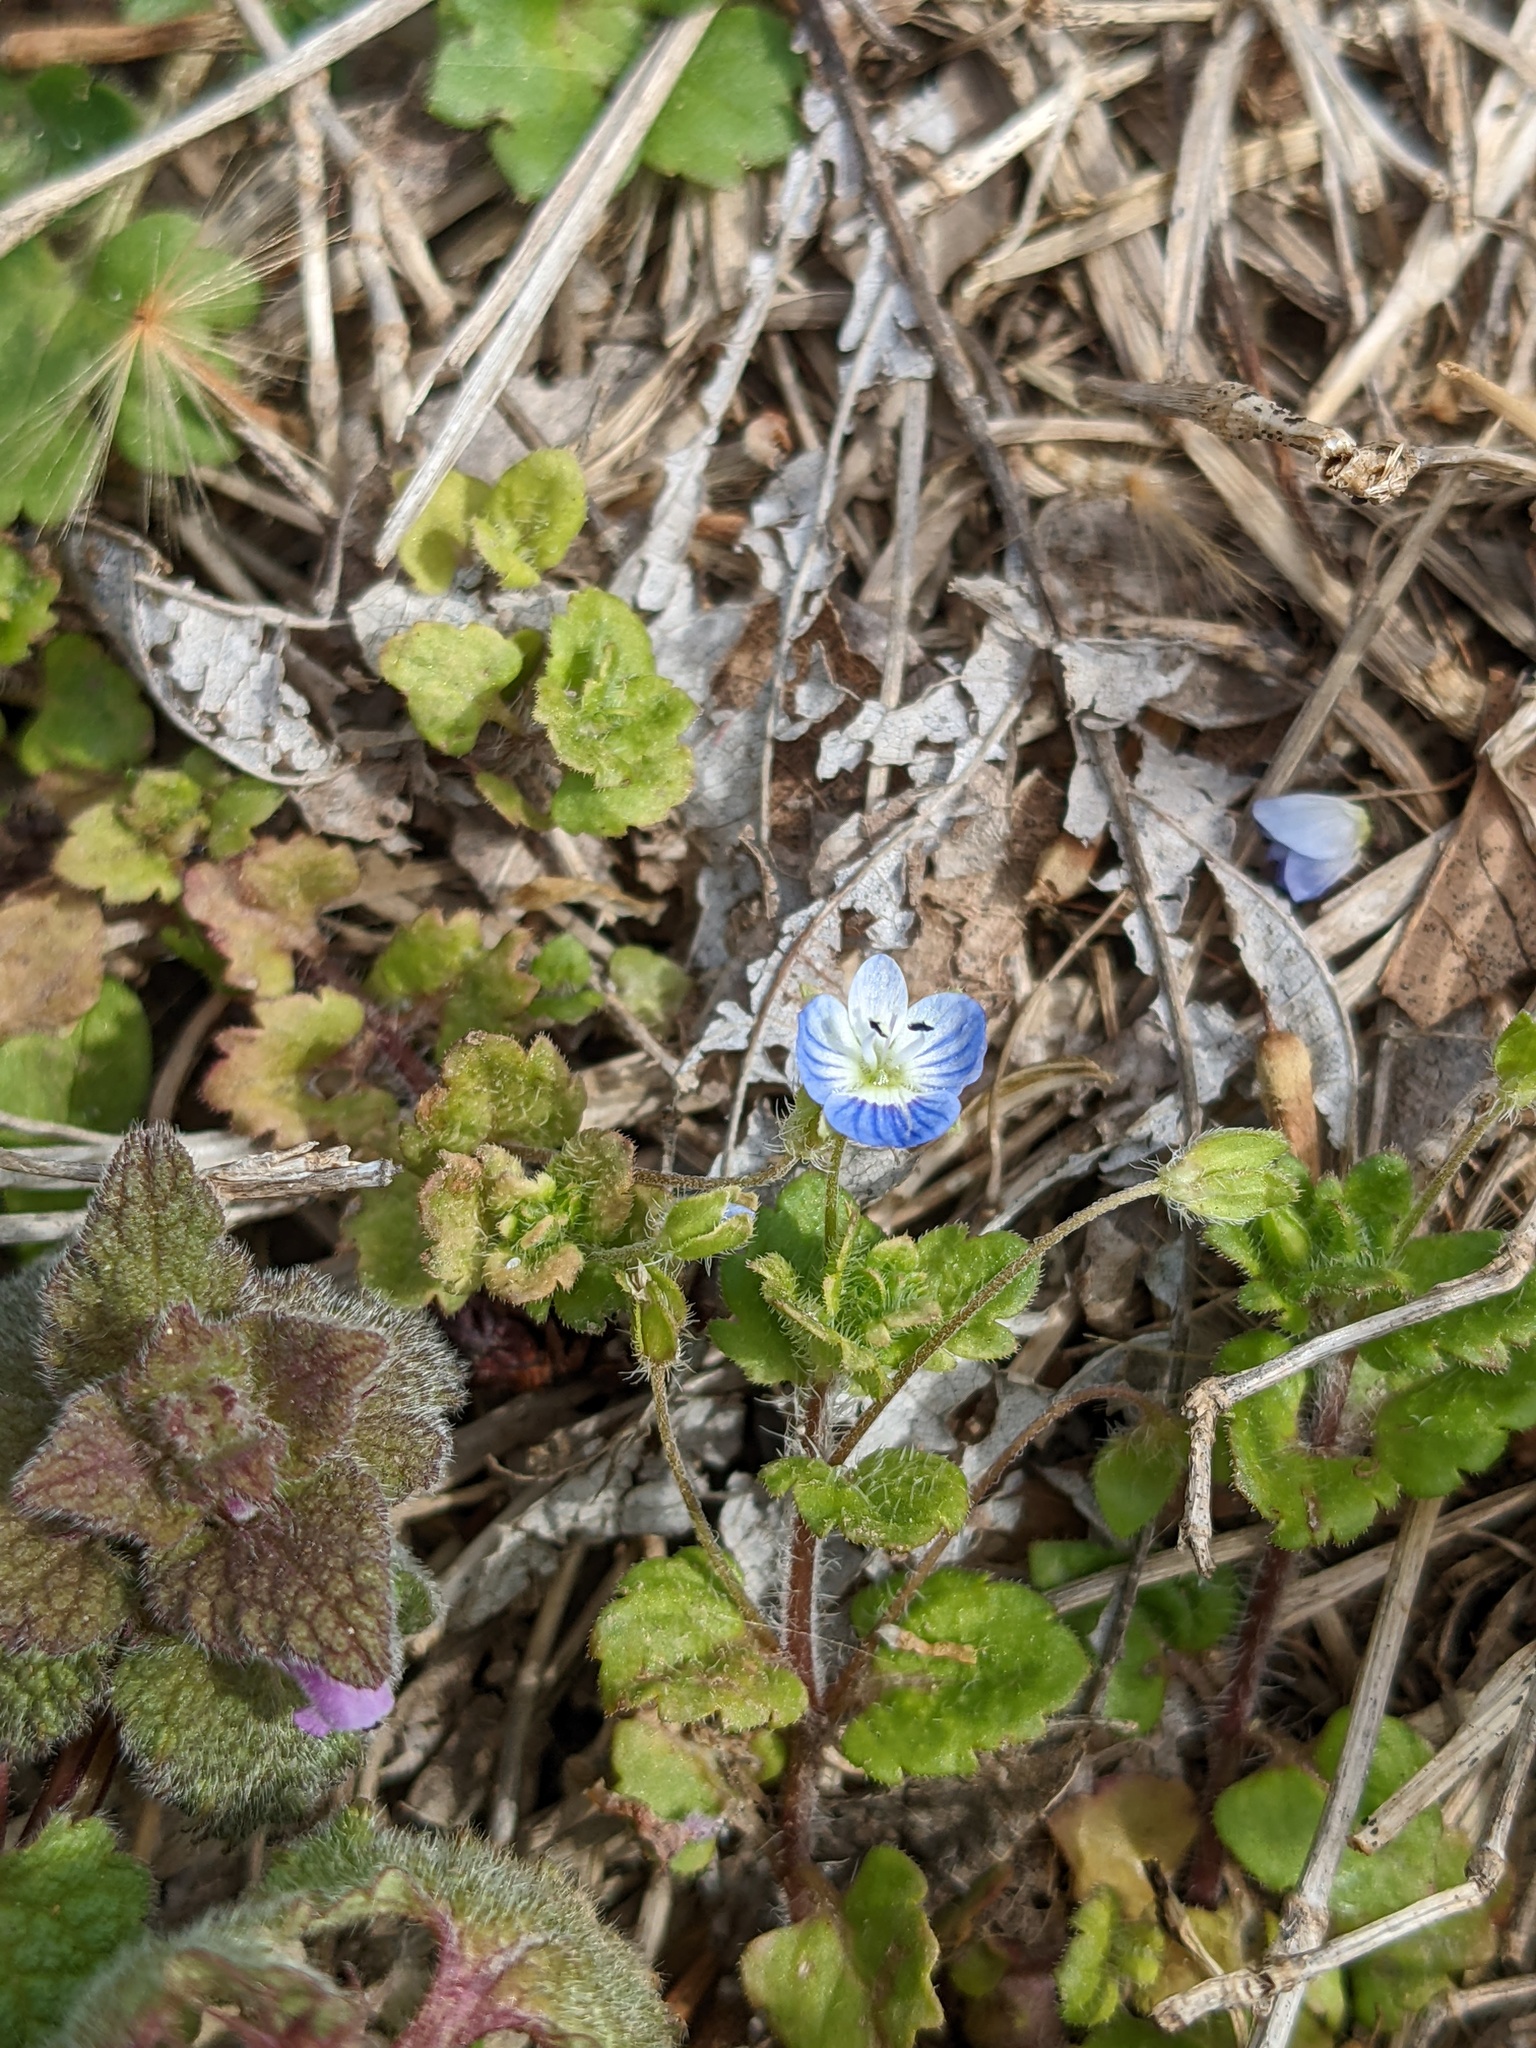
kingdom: Plantae
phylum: Tracheophyta
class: Magnoliopsida
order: Lamiales
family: Plantaginaceae
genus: Veronica
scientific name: Veronica persica
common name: Common field-speedwell
